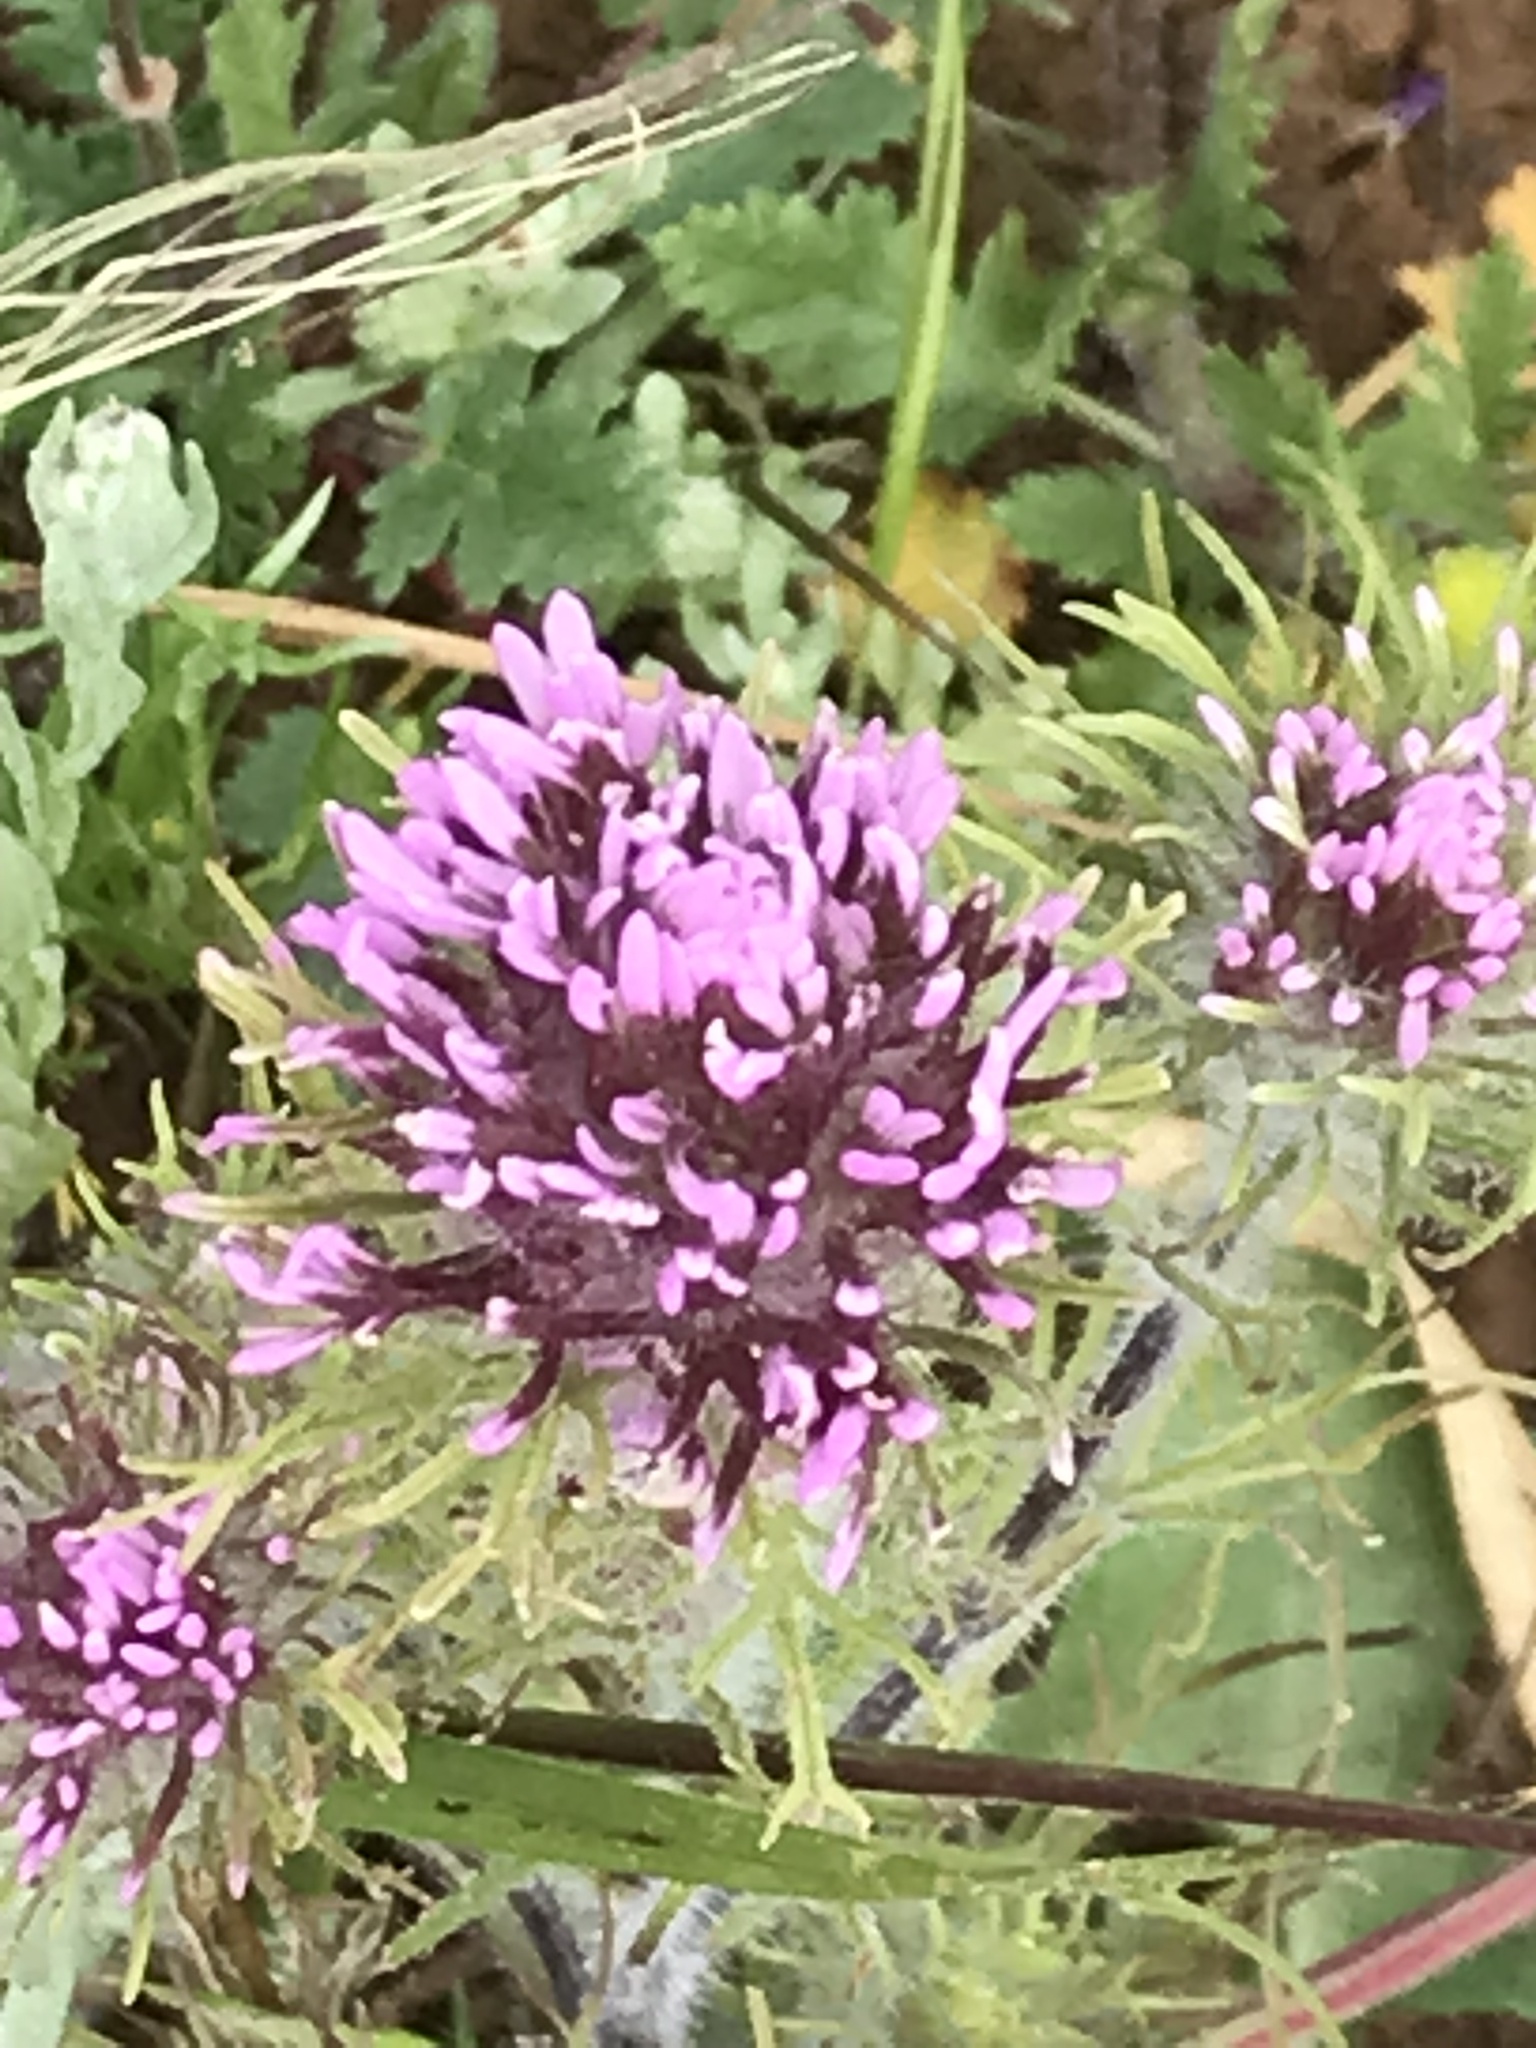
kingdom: Plantae
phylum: Tracheophyta
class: Magnoliopsida
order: Lamiales
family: Orobanchaceae
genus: Castilleja
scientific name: Castilleja exserta
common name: Purple owl-clover
